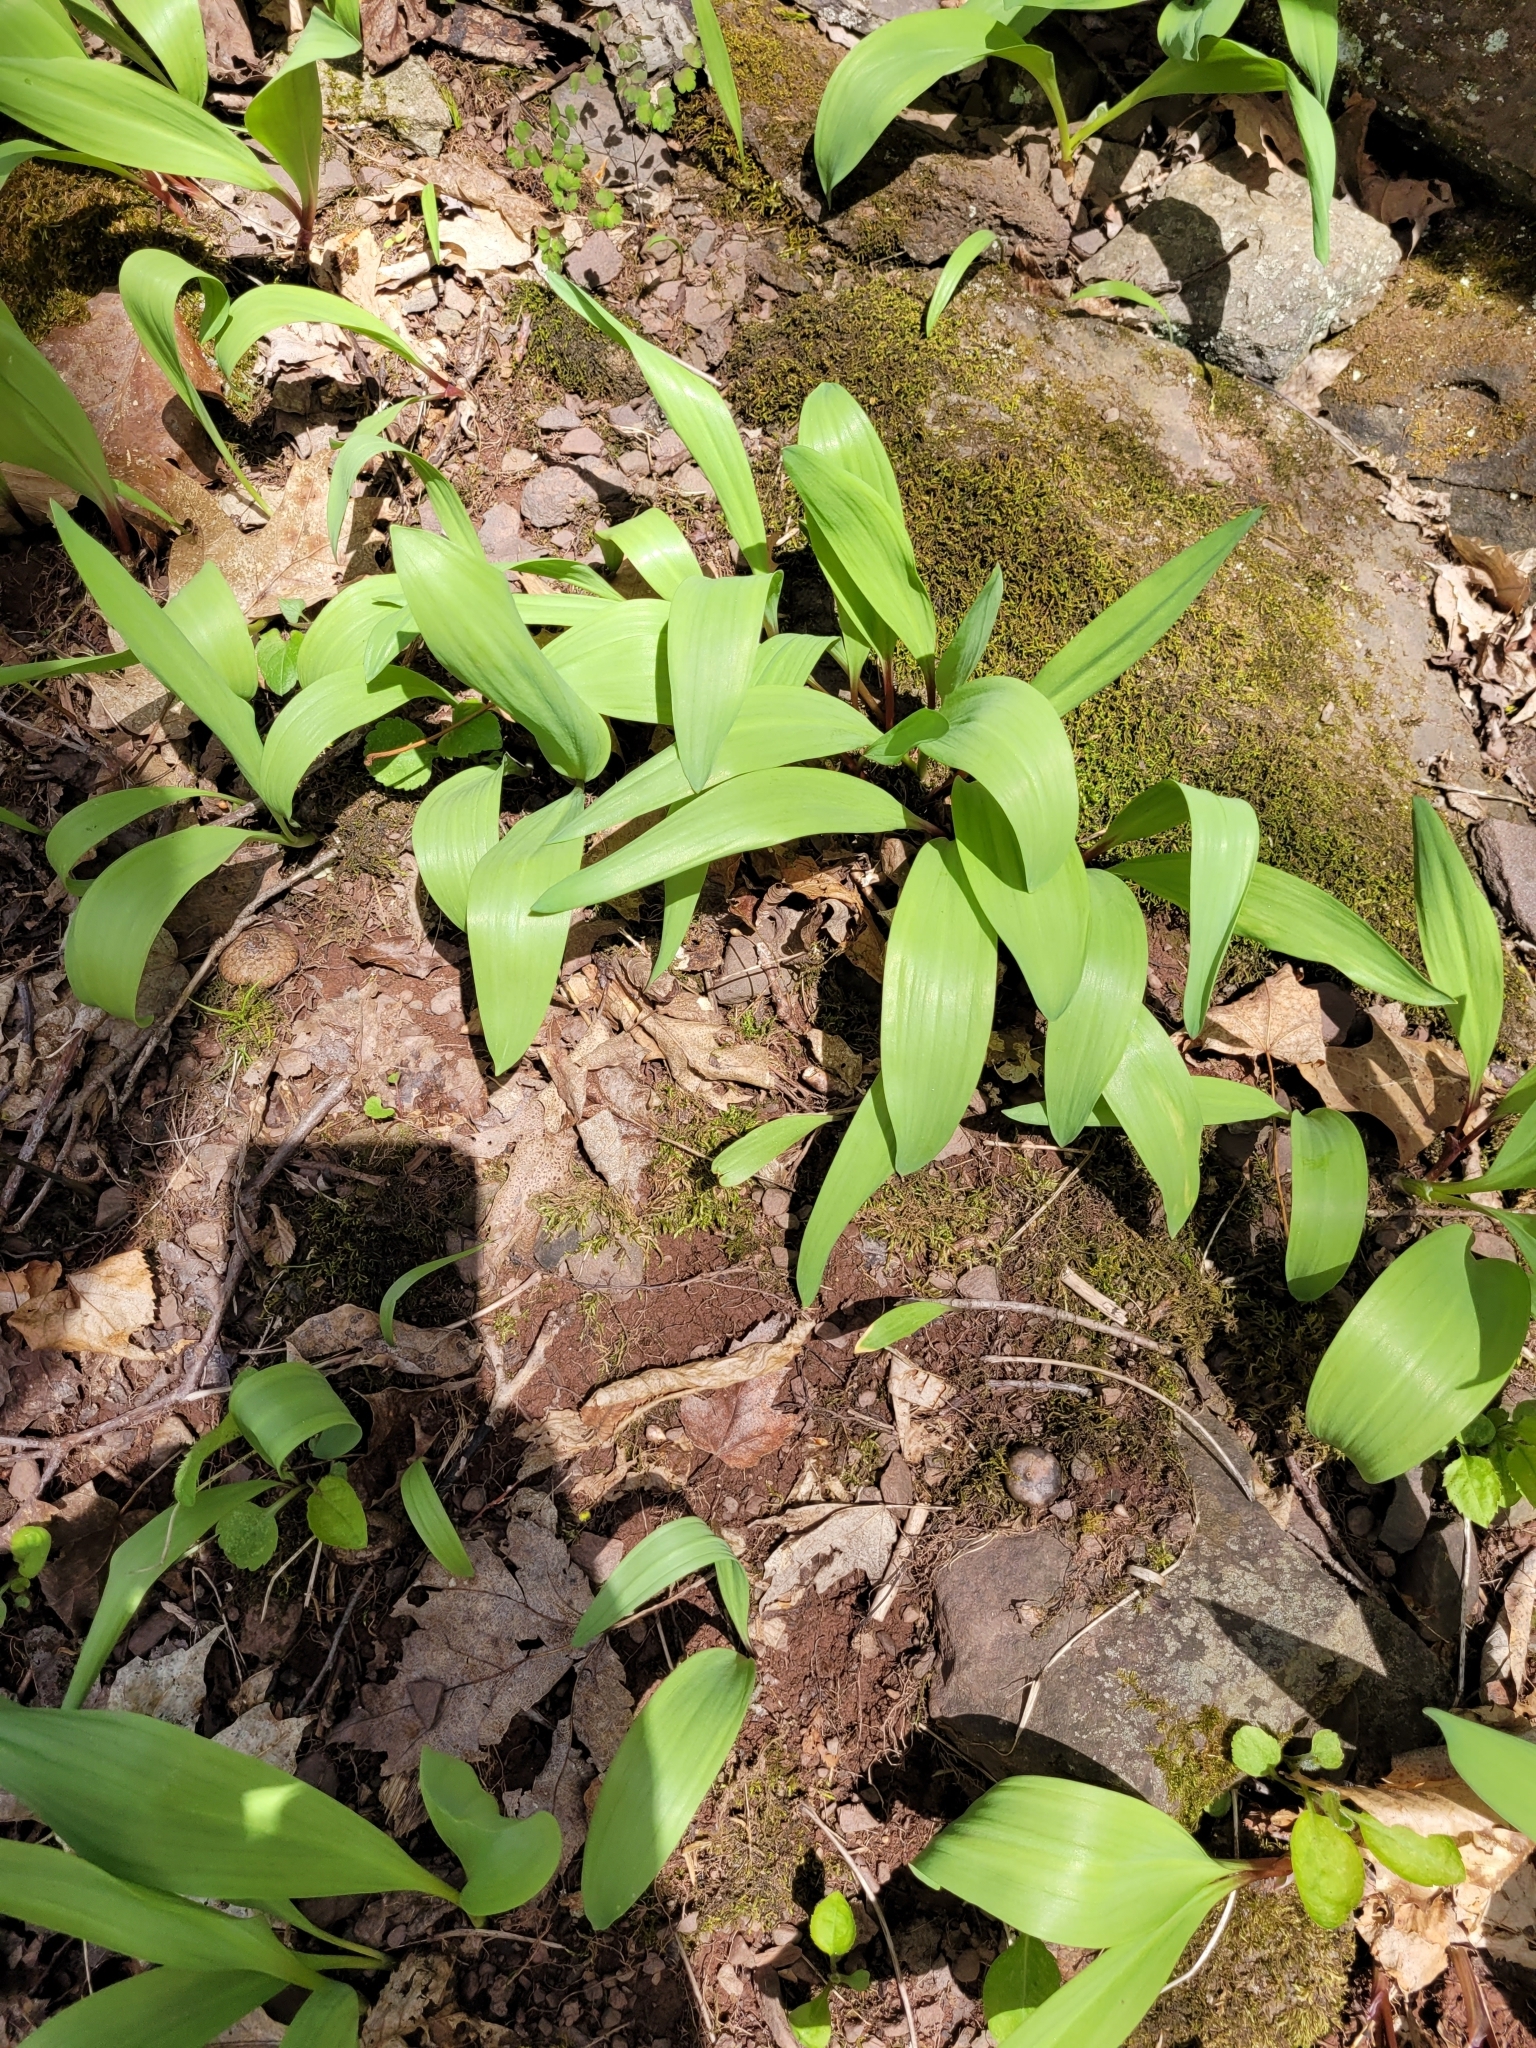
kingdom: Plantae
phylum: Tracheophyta
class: Liliopsida
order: Asparagales
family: Amaryllidaceae
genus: Allium
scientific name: Allium tricoccum
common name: Ramp
